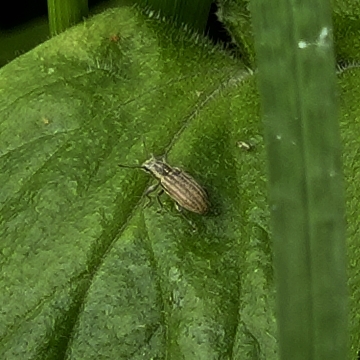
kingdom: Animalia
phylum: Arthropoda
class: Insecta
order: Coleoptera
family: Curculionidae
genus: Sitona
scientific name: Sitona lineatus
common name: Weevil
